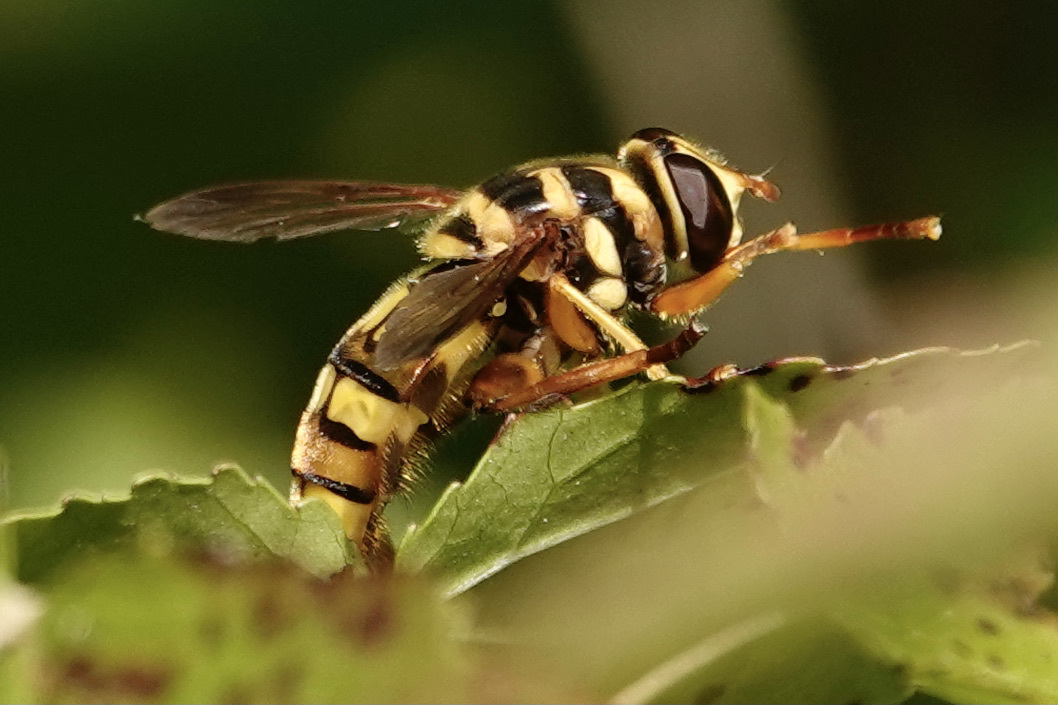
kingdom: Animalia
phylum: Arthropoda
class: Insecta
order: Diptera
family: Syrphidae
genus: Milesia
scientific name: Milesia virginiensis
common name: Virginia giant
